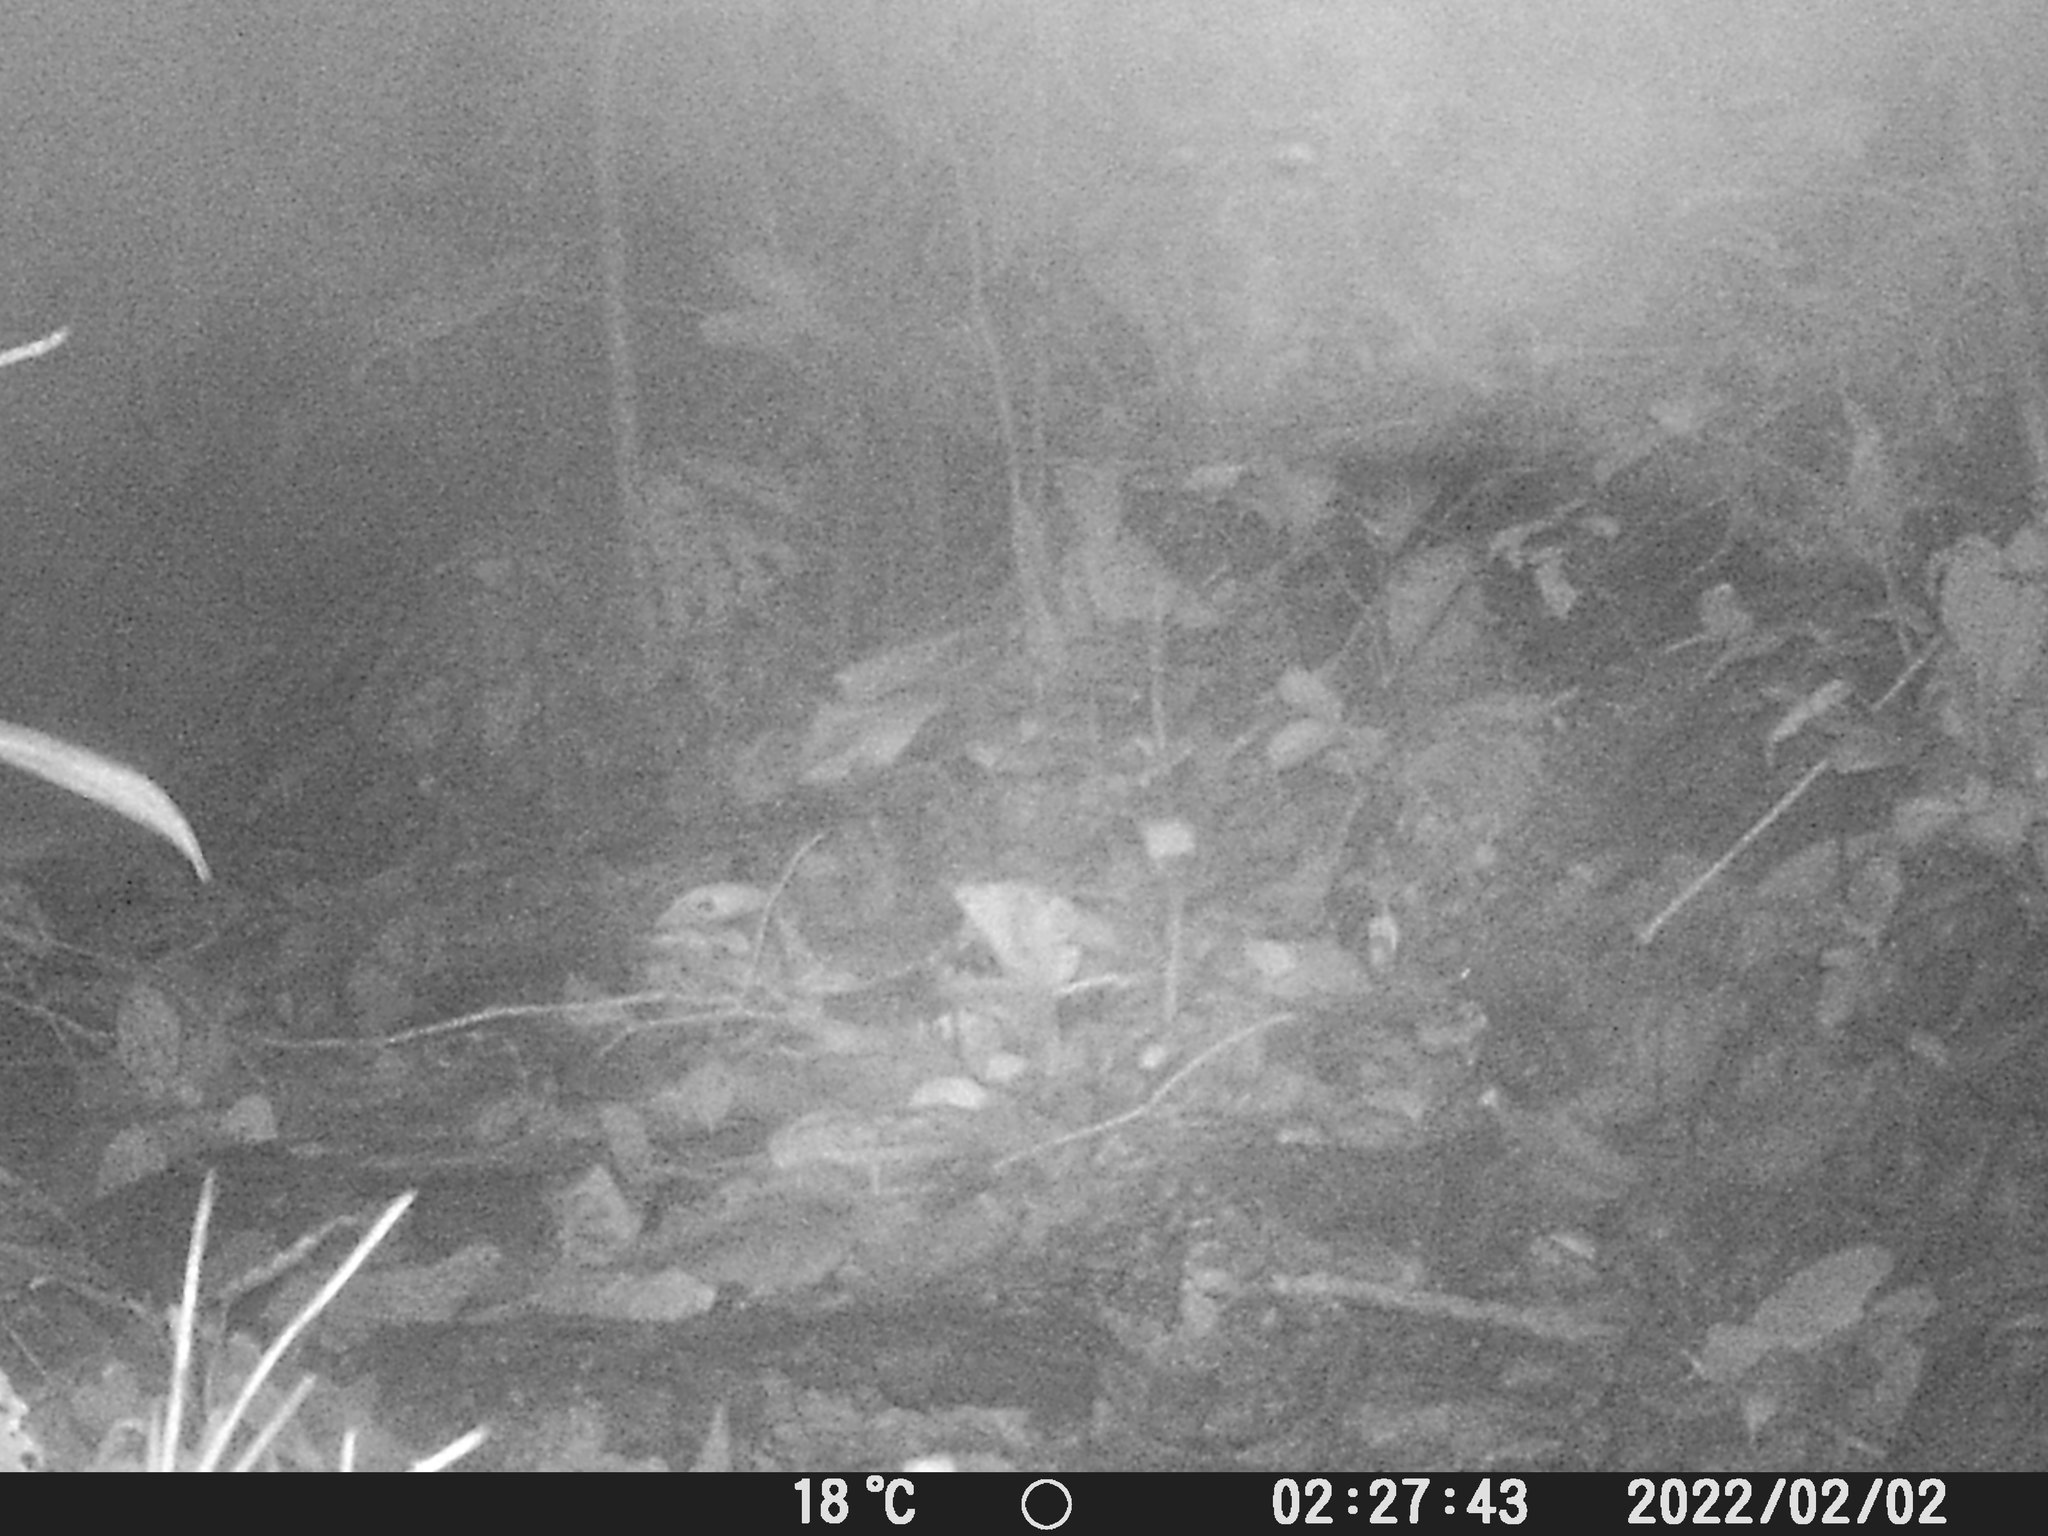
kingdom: Animalia
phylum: Chordata
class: Mammalia
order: Rodentia
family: Cuniculidae
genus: Cuniculus
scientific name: Cuniculus paca
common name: Lowland paca
